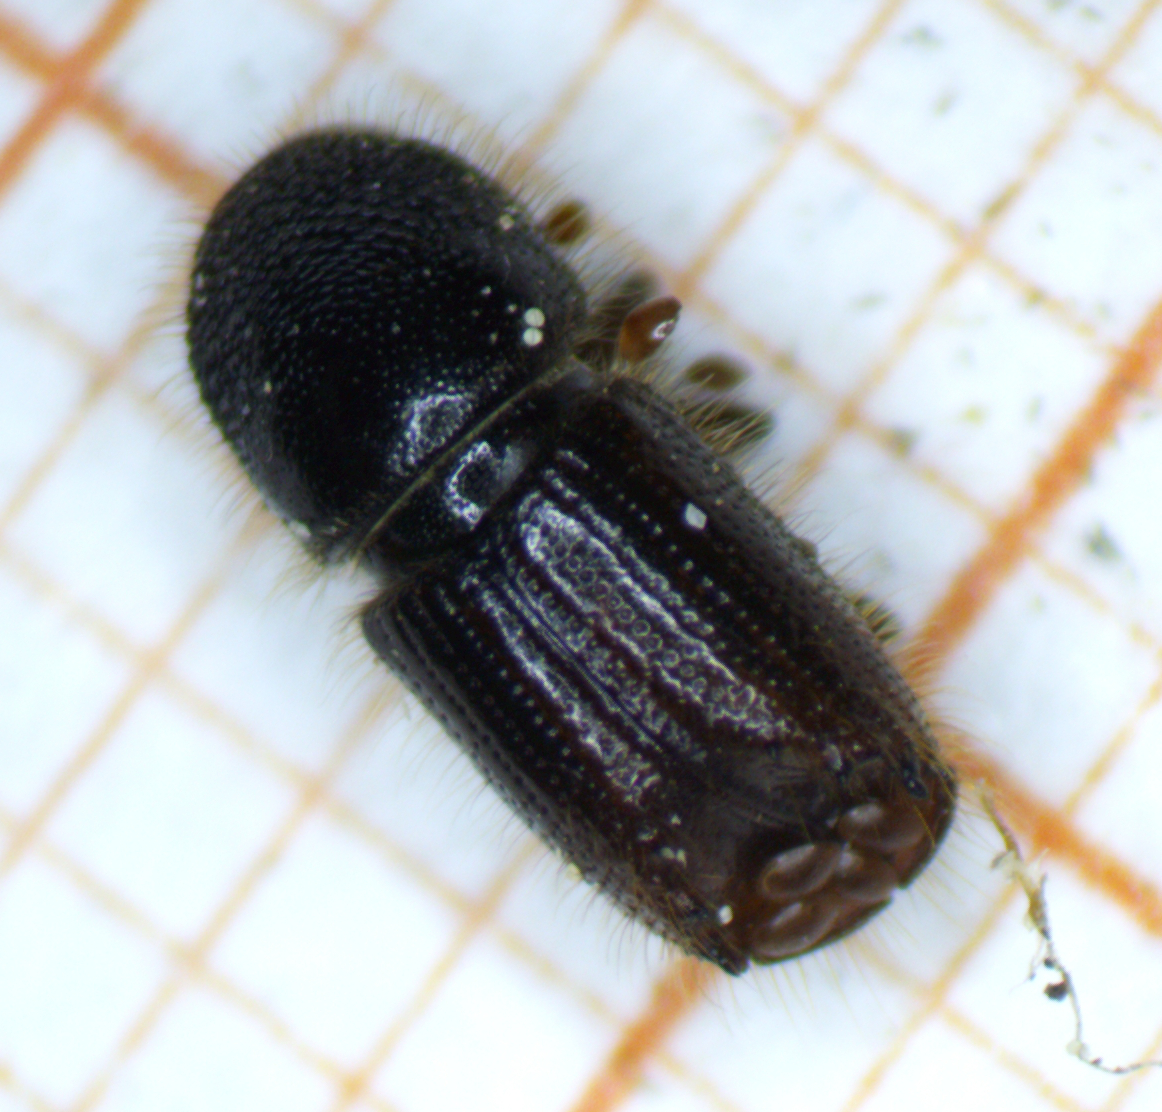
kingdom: Animalia
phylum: Arthropoda
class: Insecta
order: Coleoptera
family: Curculionidae
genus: Ips
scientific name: Ips typographus
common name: Eight-toothed spruce bark beetle
